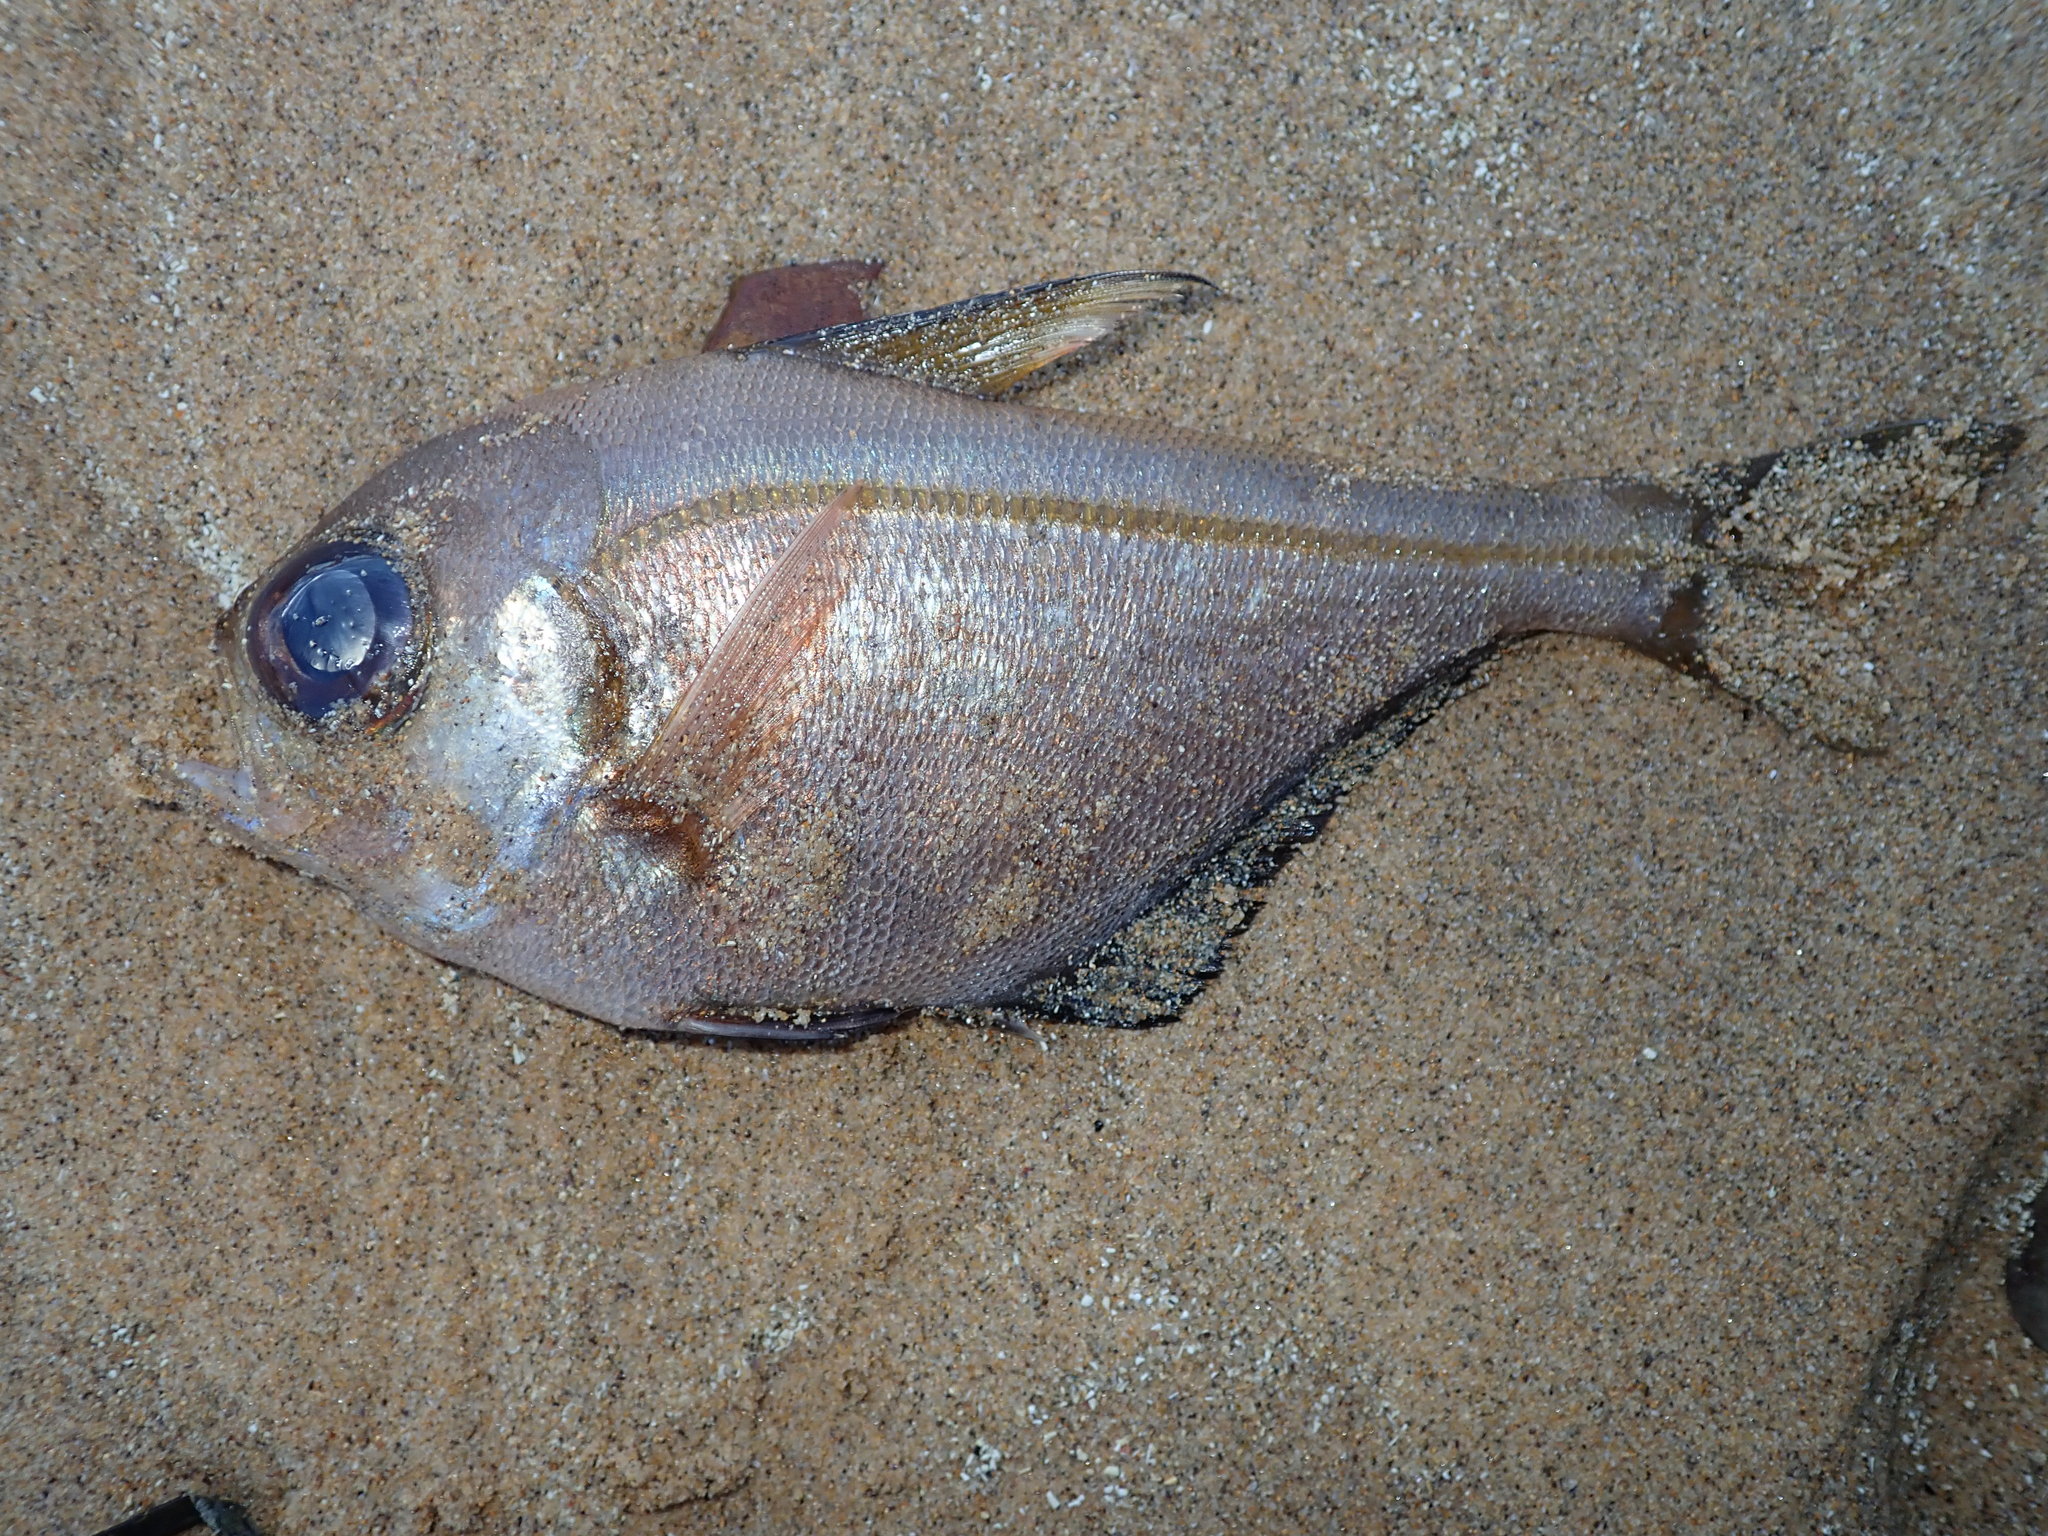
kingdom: Animalia
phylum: Chordata
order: Perciformes
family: Pempheridae
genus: Pempheris
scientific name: Pempheris compressa
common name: Bulleye
